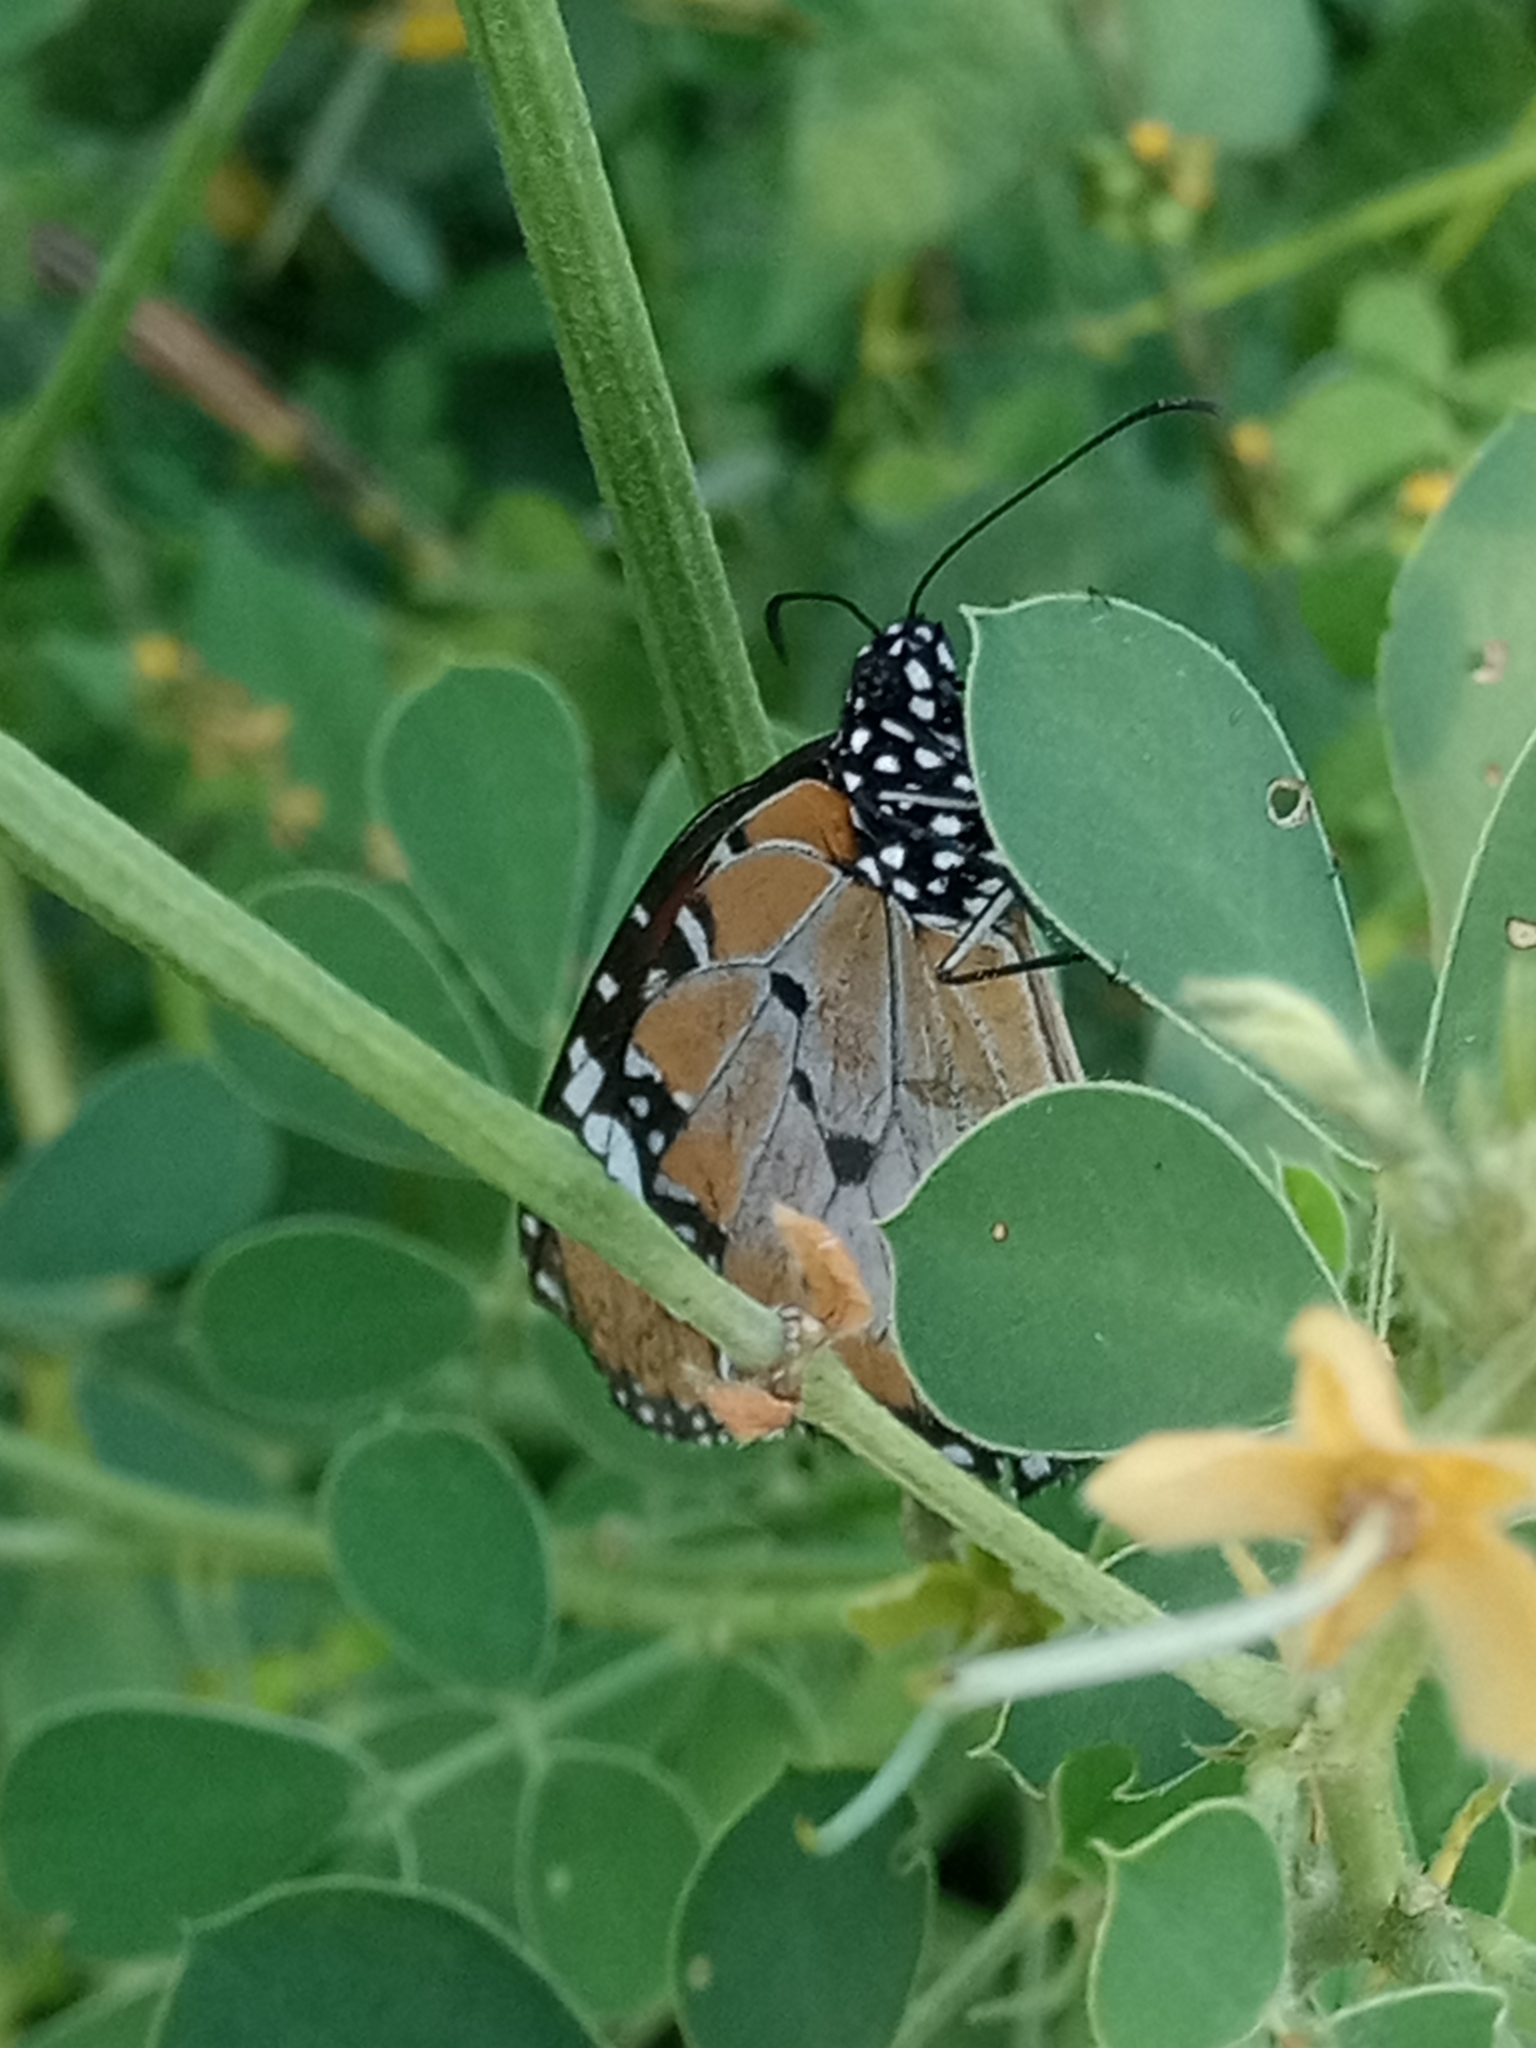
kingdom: Animalia
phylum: Arthropoda
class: Insecta
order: Lepidoptera
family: Nymphalidae
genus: Danaus
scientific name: Danaus chrysippus
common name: Plain tiger
